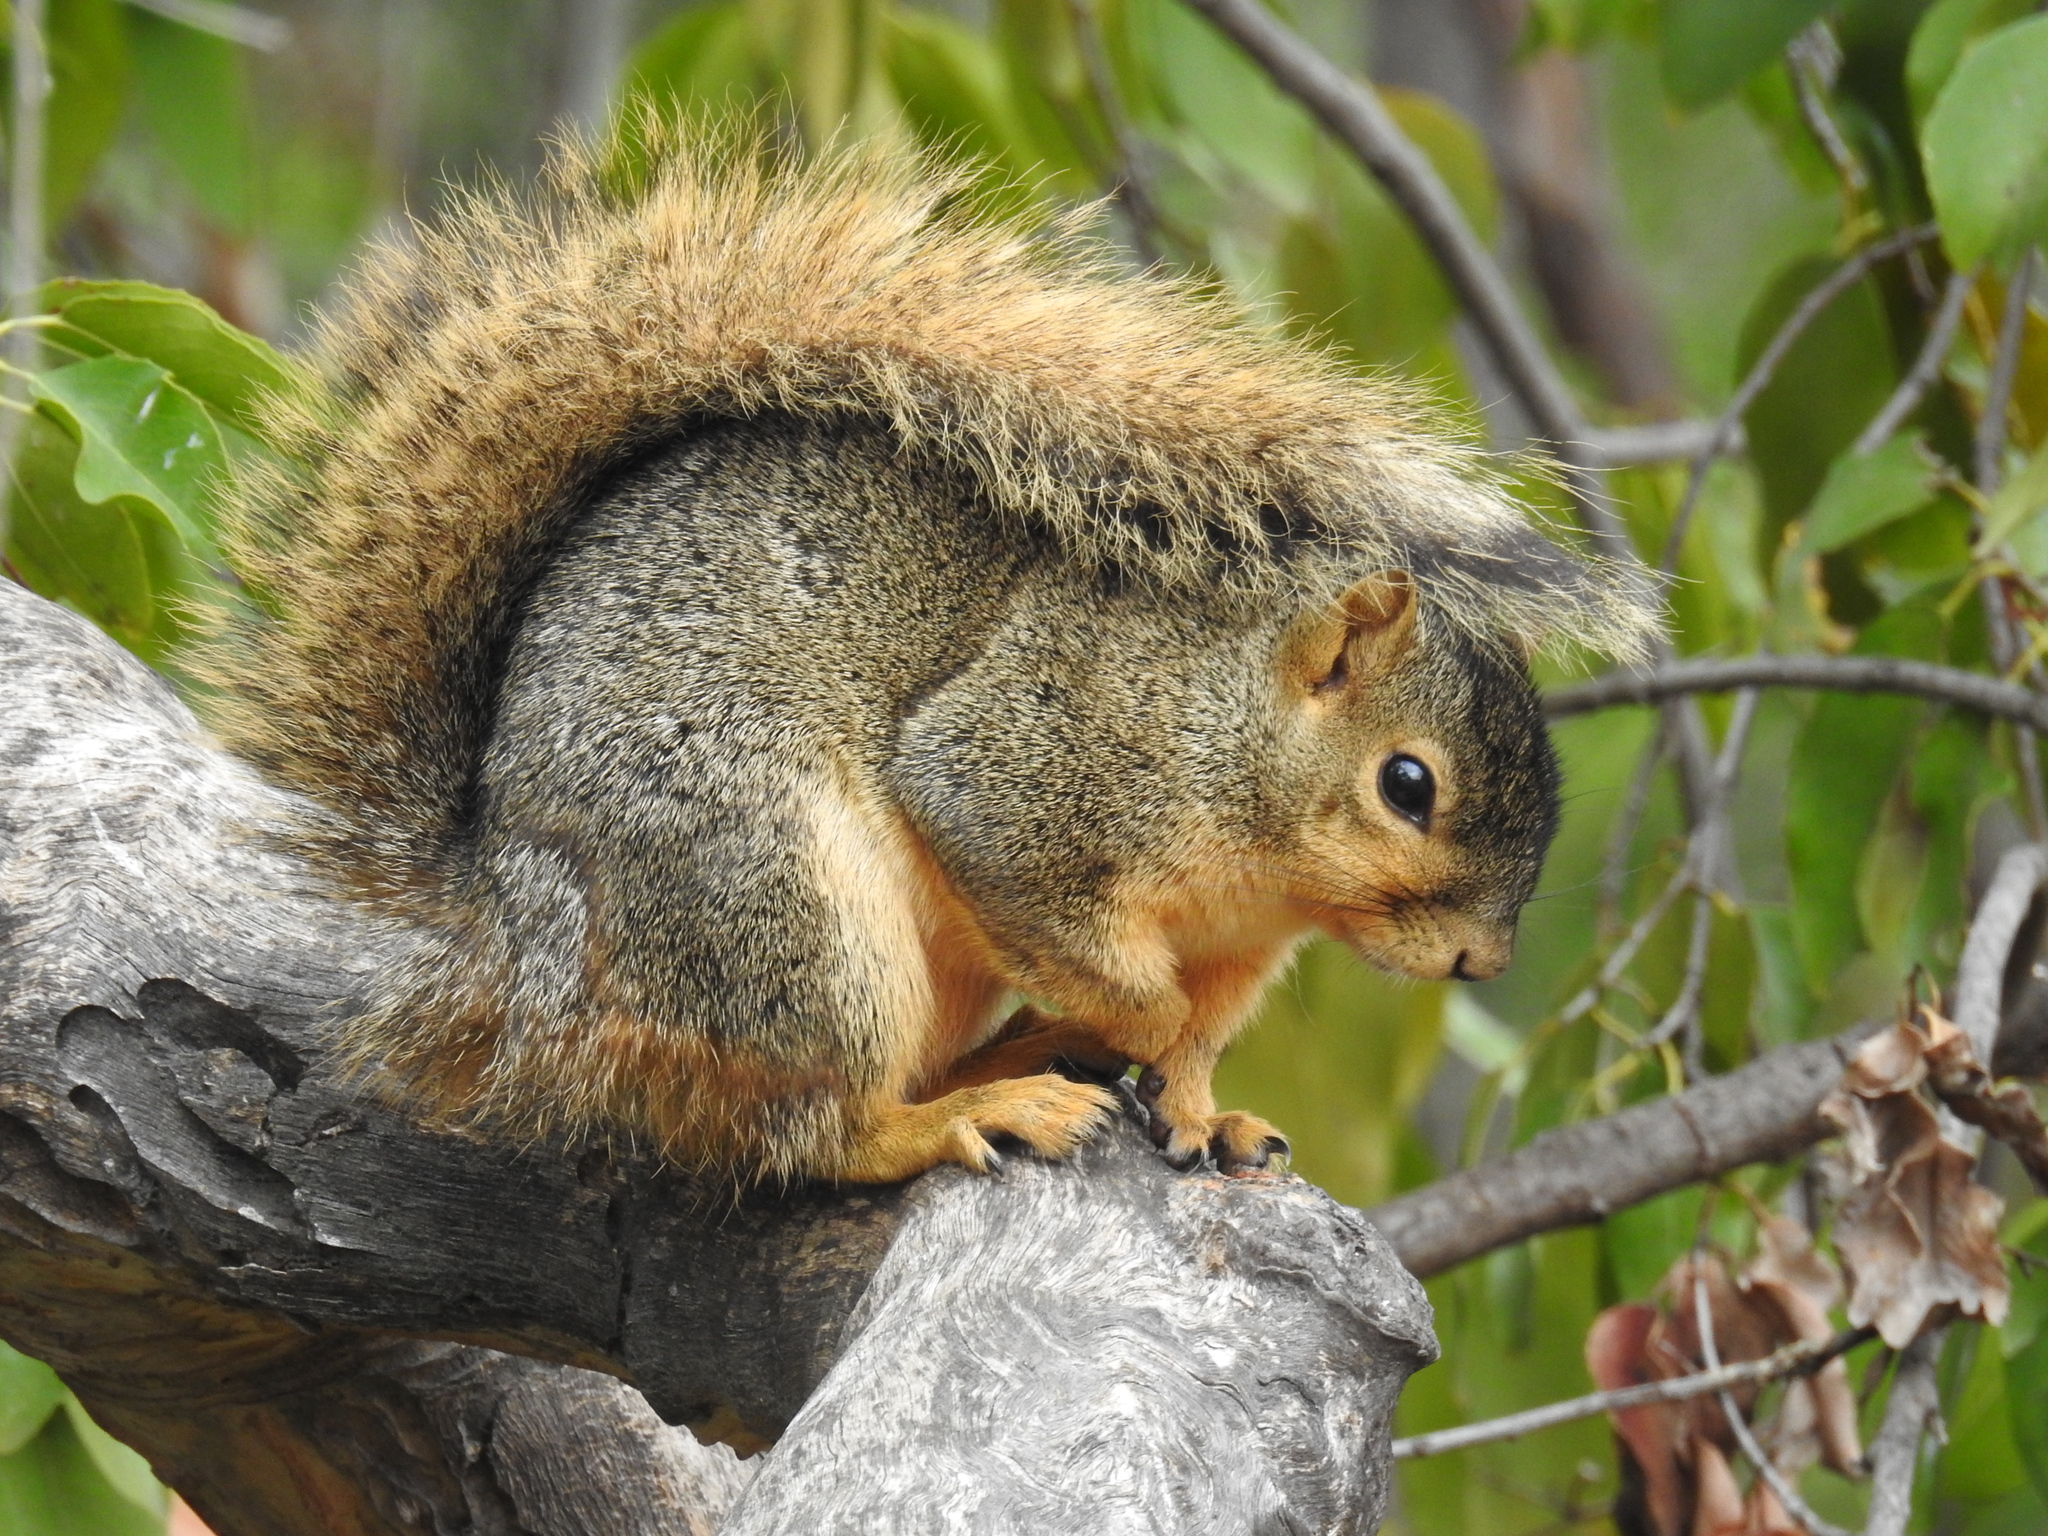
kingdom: Animalia
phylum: Chordata
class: Mammalia
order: Rodentia
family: Sciuridae
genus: Sciurus
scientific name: Sciurus niger
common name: Fox squirrel
